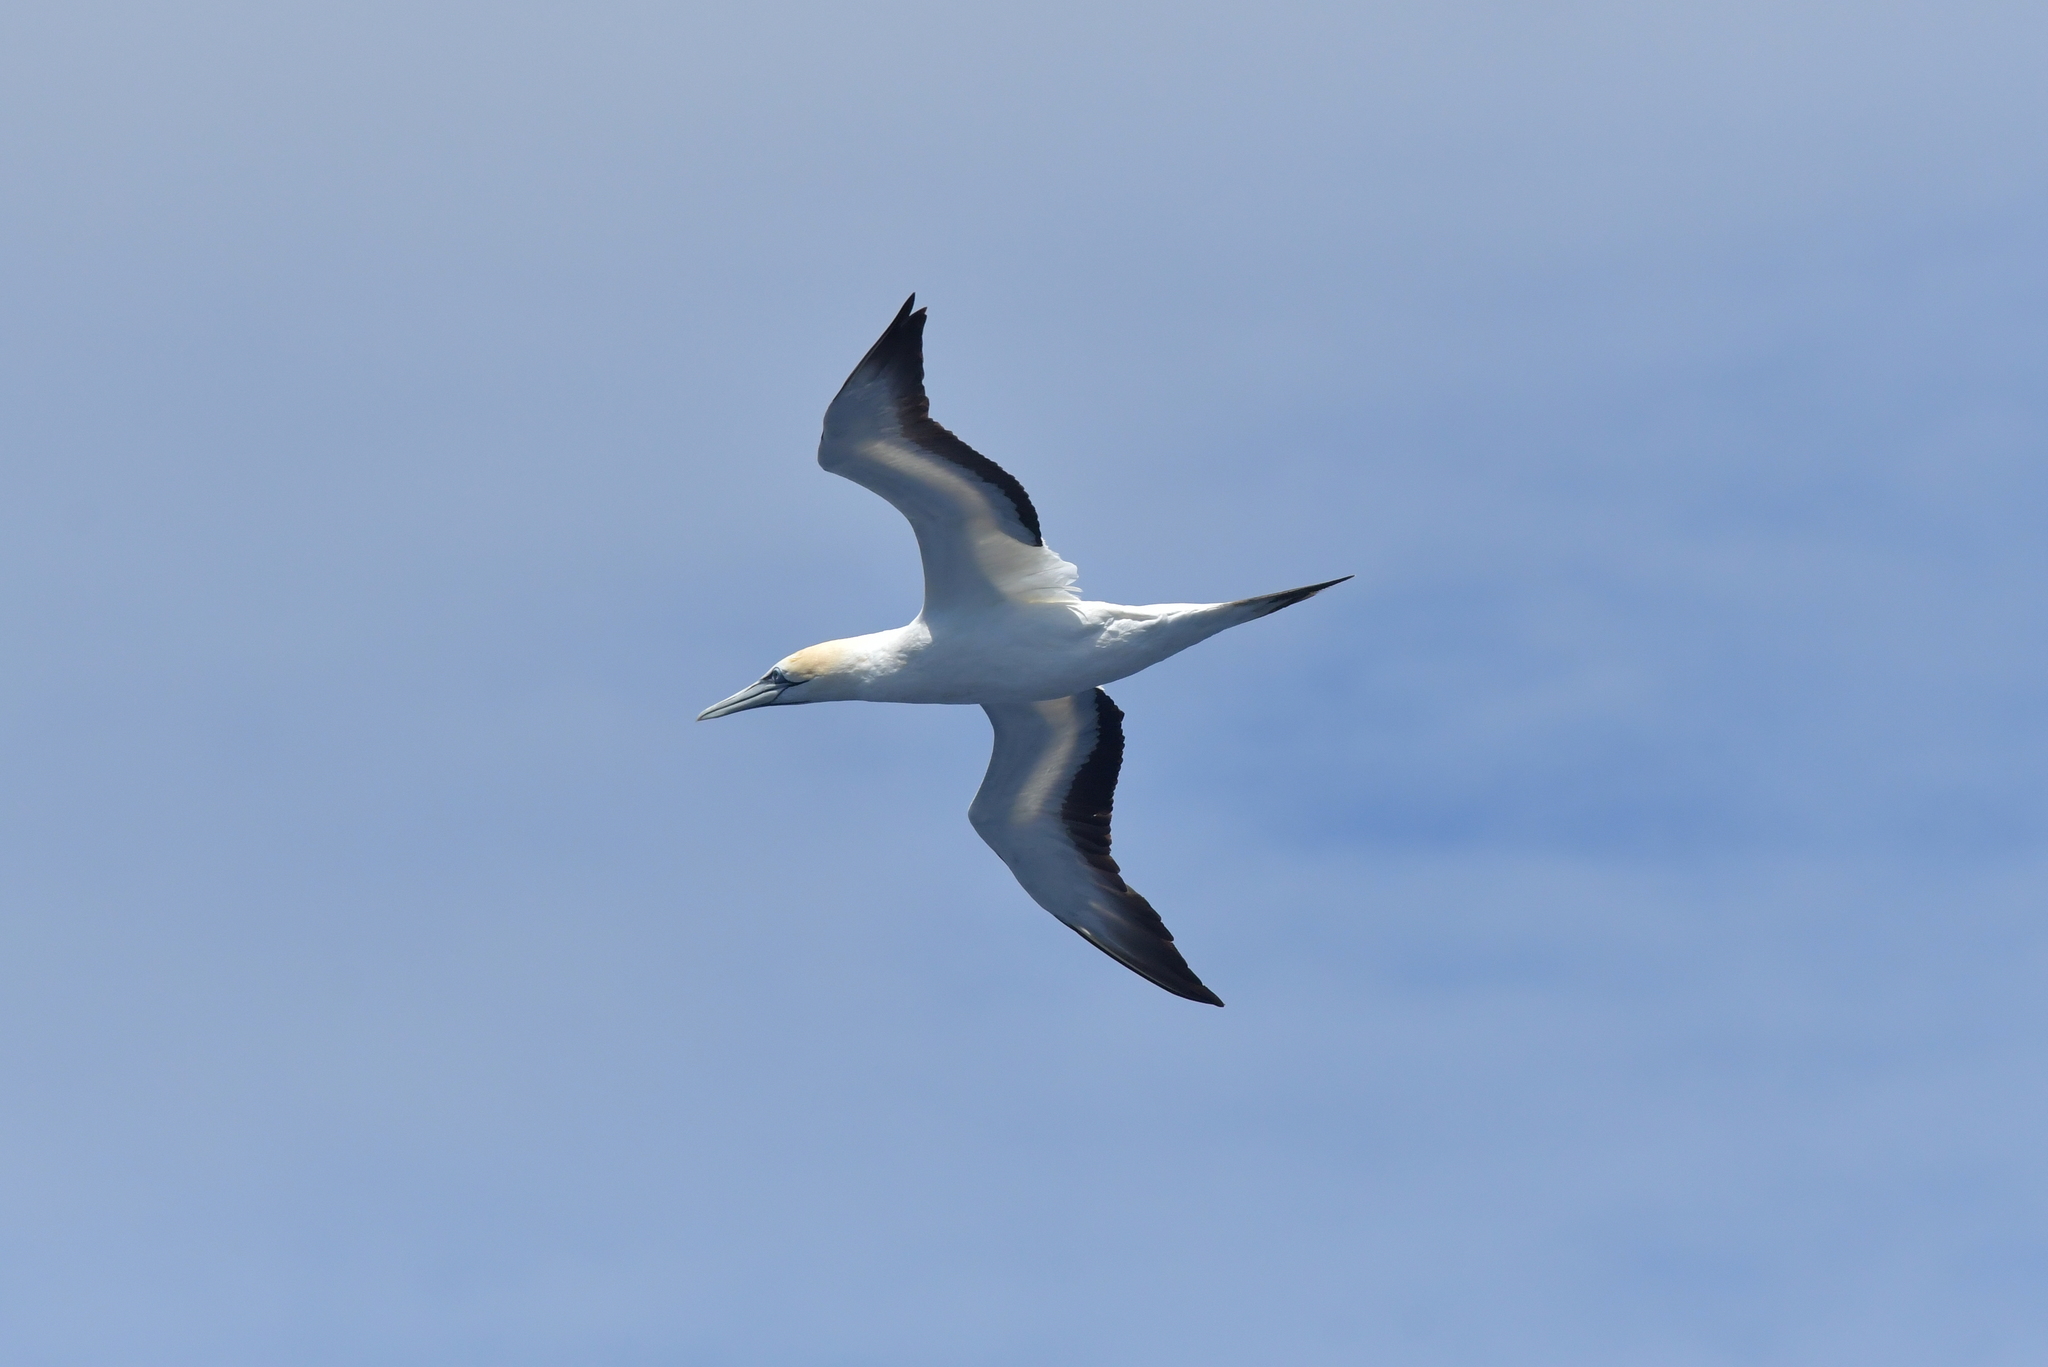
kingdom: Animalia
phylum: Chordata
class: Aves
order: Suliformes
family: Sulidae
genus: Morus
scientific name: Morus serrator
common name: Australasian gannet
